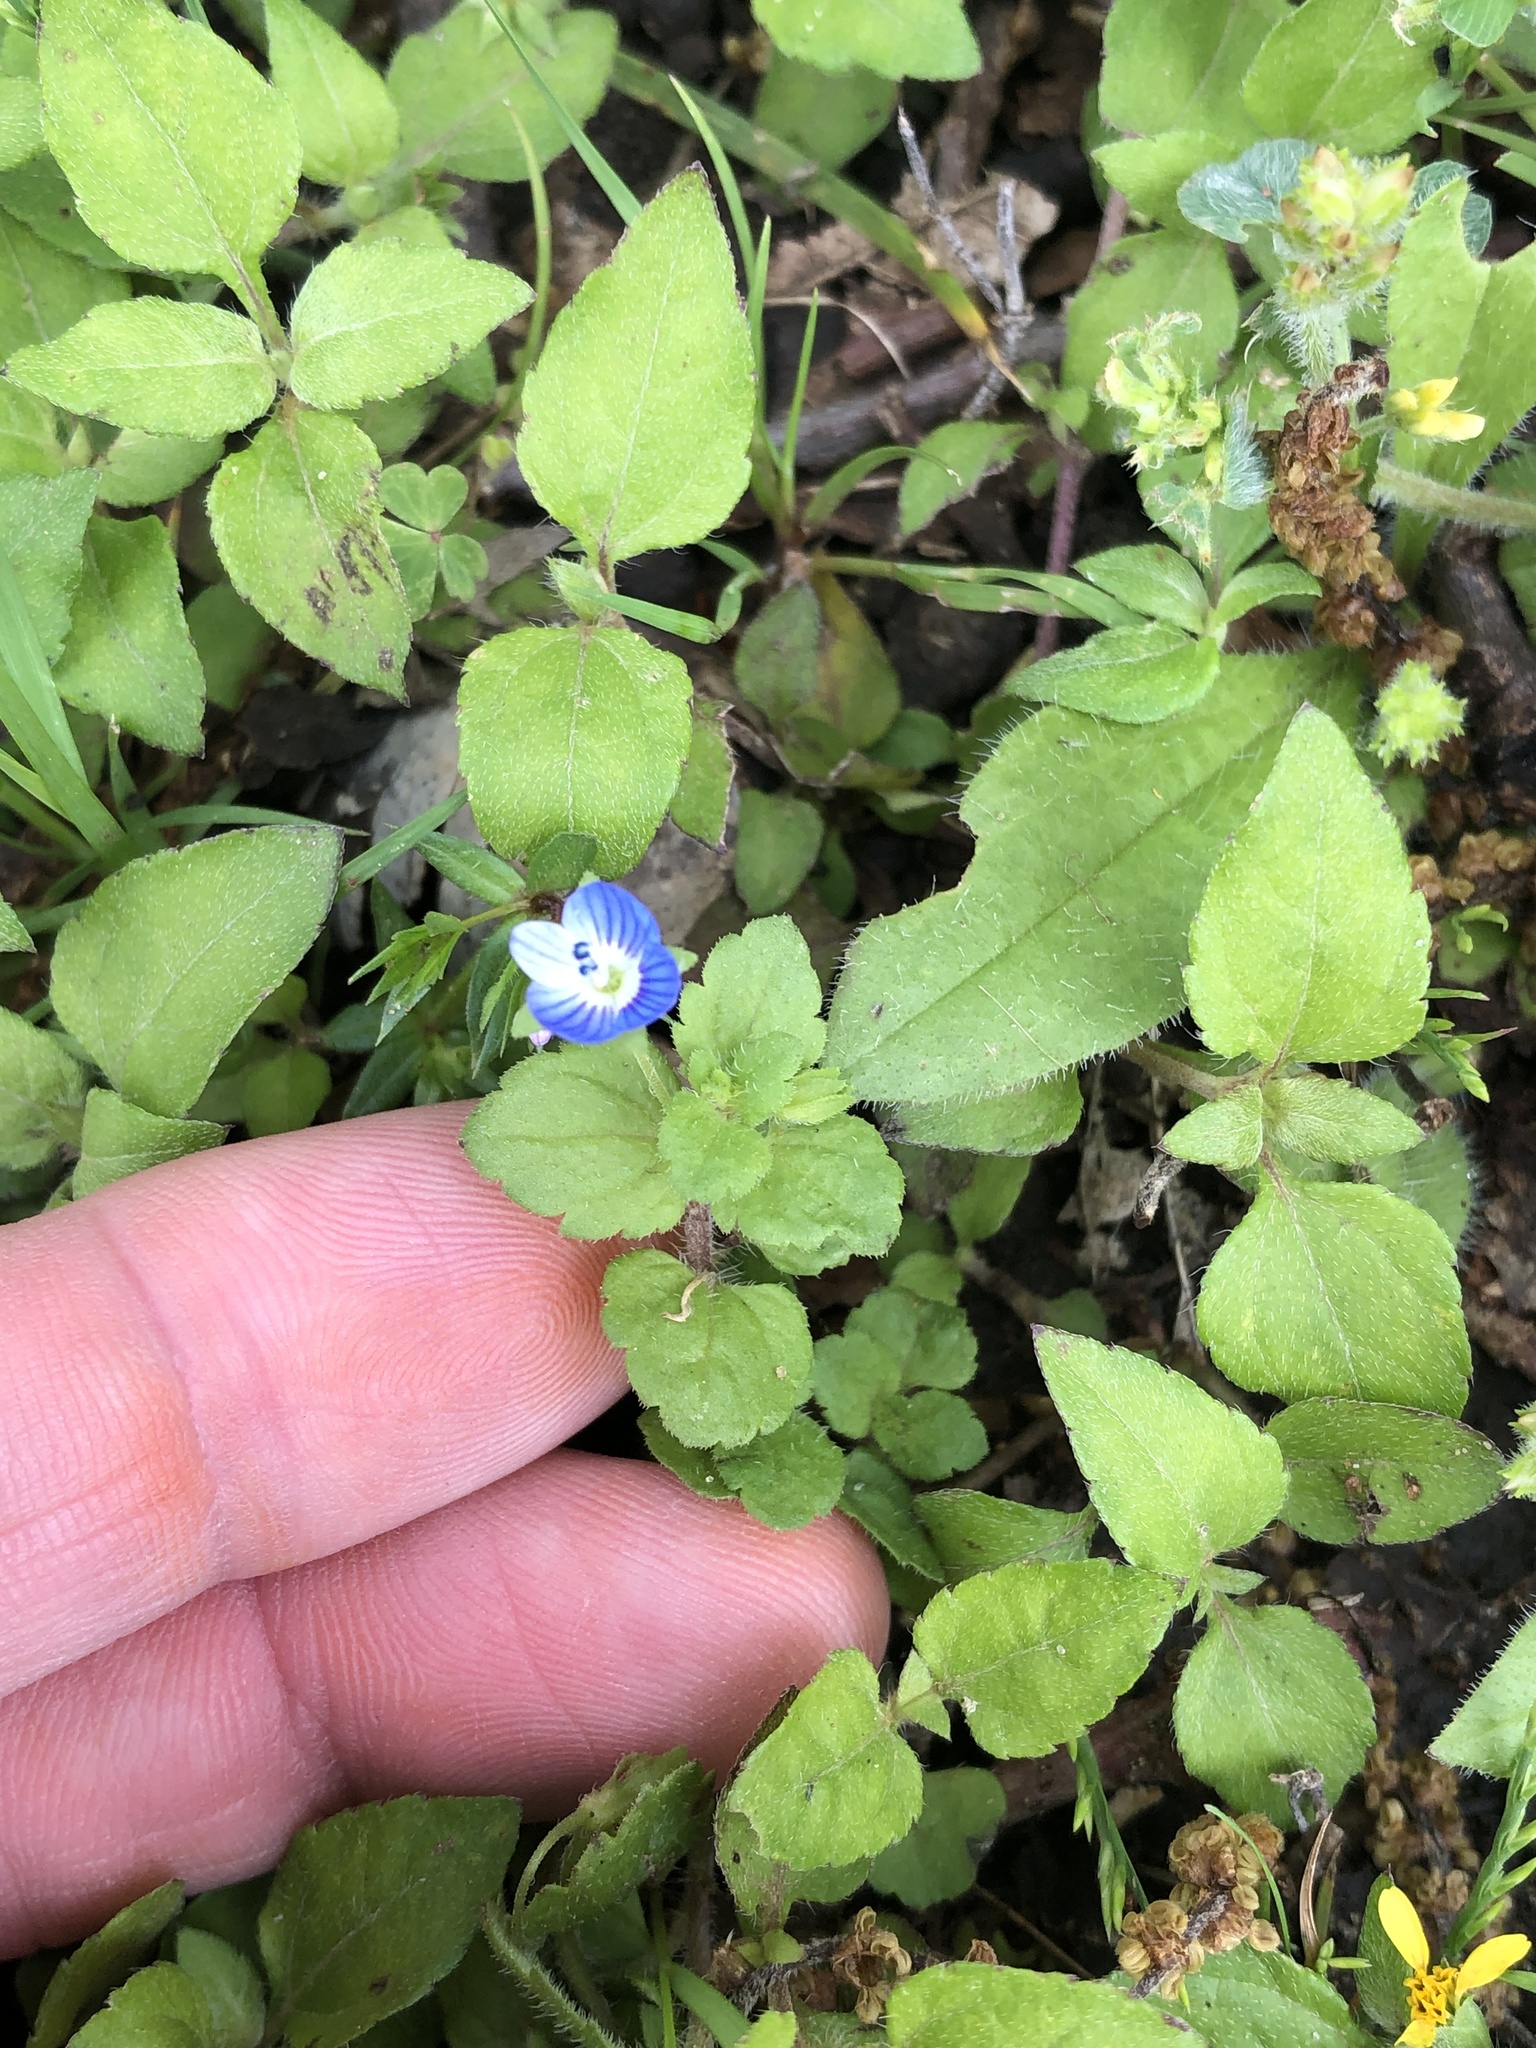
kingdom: Plantae
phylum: Tracheophyta
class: Magnoliopsida
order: Lamiales
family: Plantaginaceae
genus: Veronica
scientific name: Veronica persica
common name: Common field-speedwell
